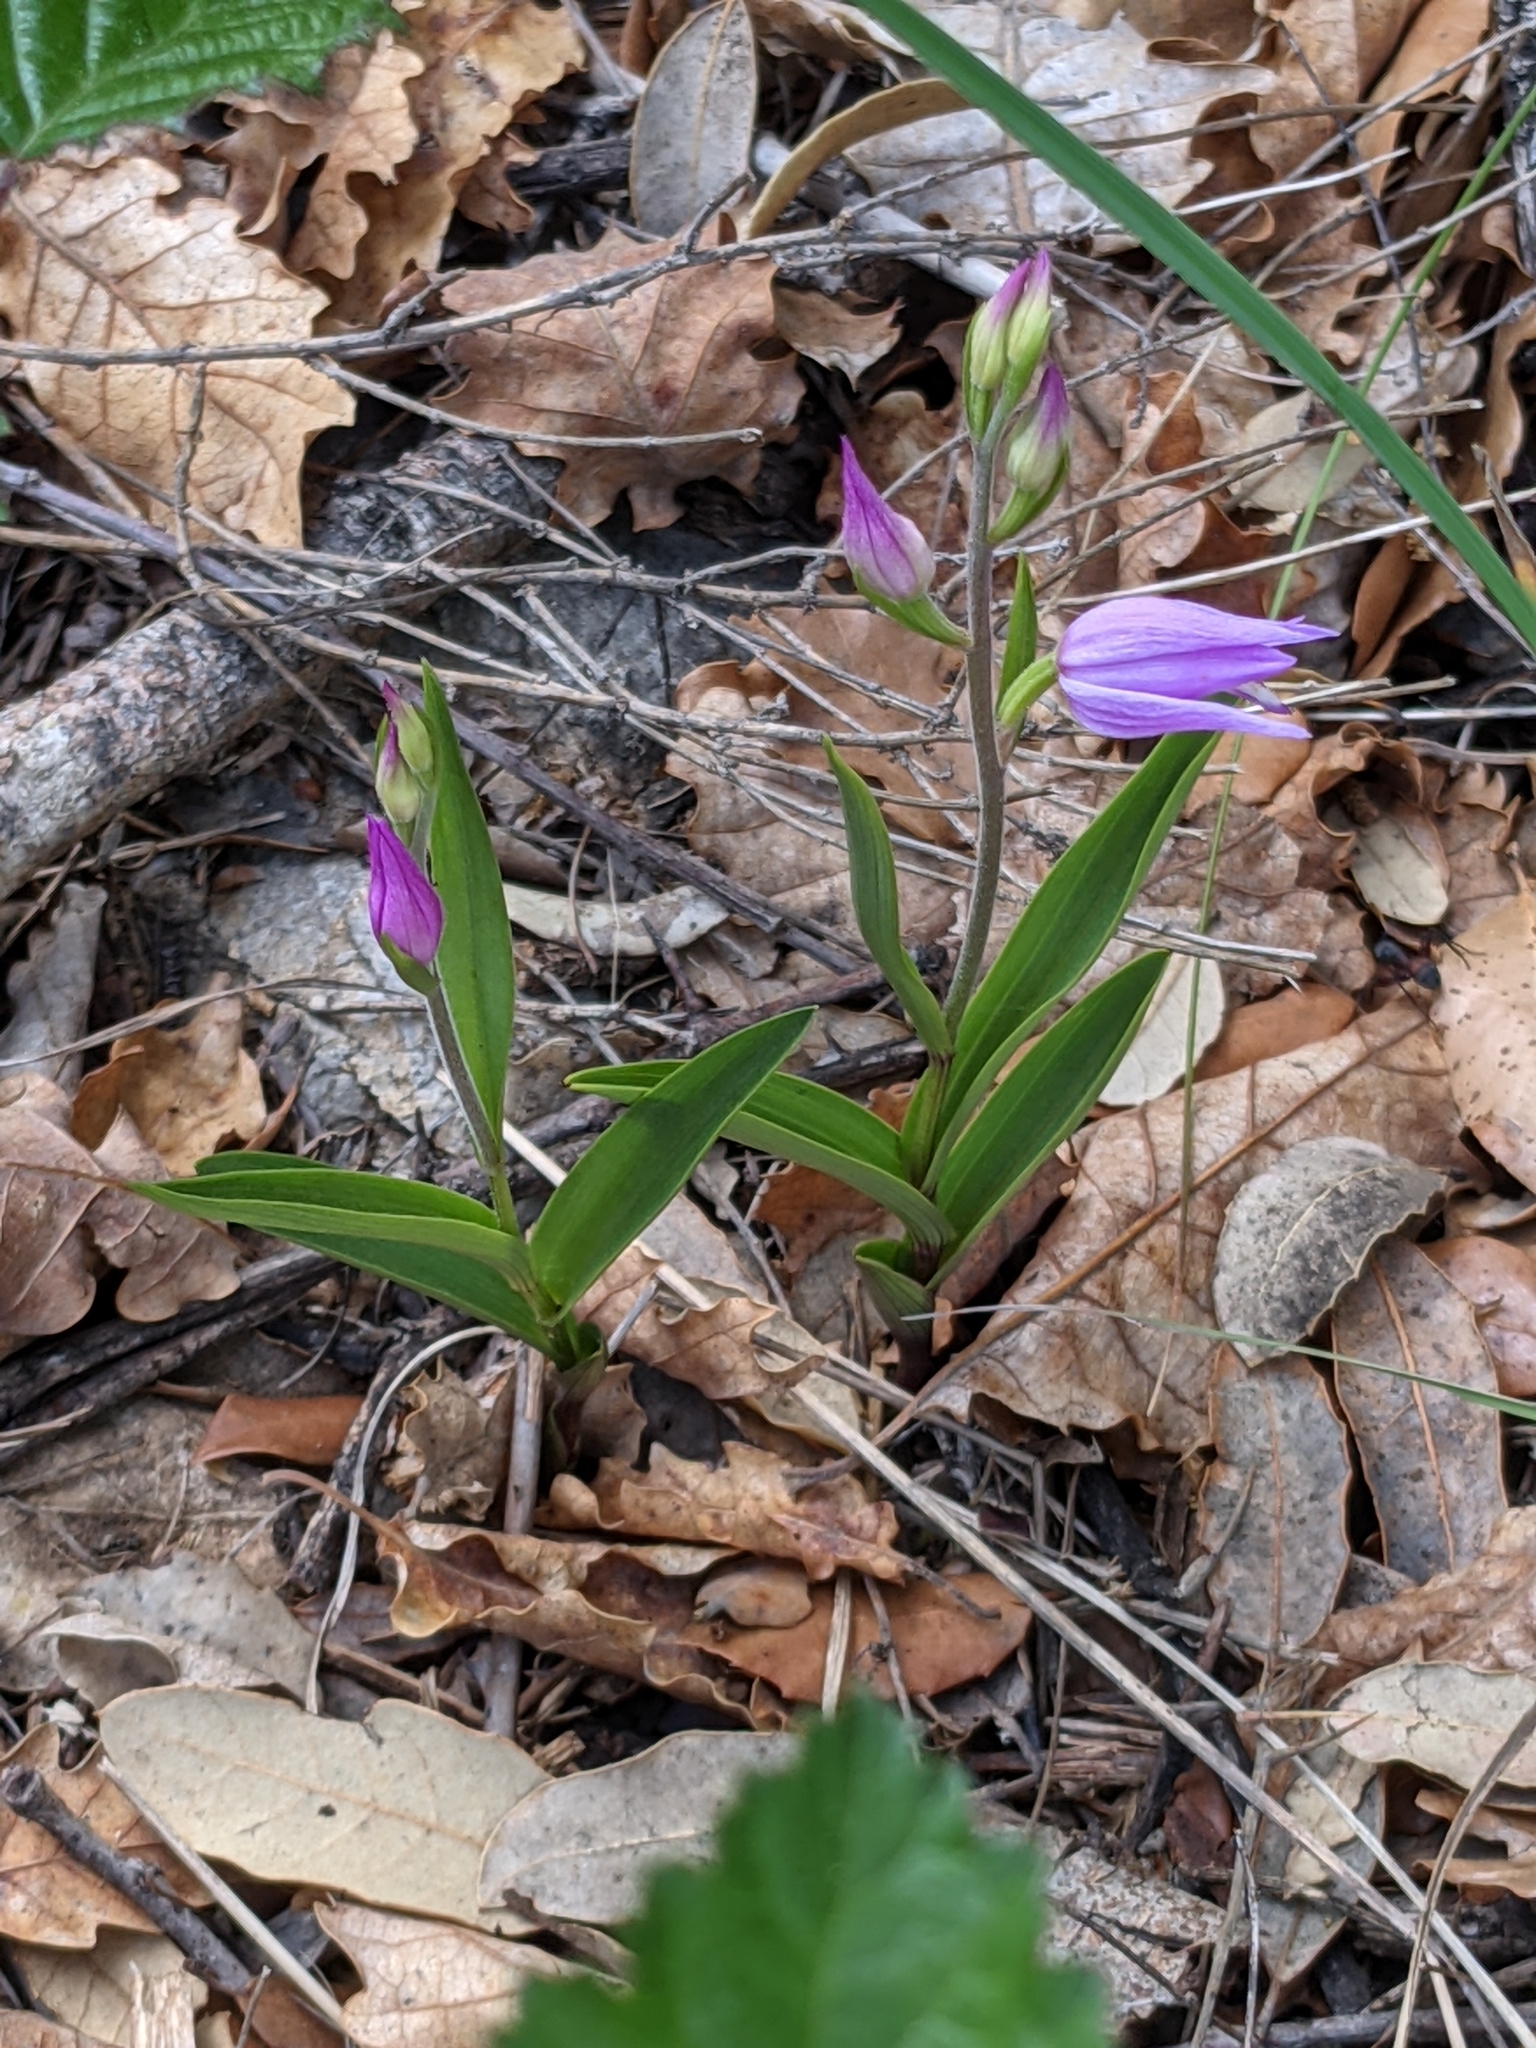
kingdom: Plantae
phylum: Tracheophyta
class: Liliopsida
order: Asparagales
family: Orchidaceae
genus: Cephalanthera
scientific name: Cephalanthera rubra
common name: Red helleborine
